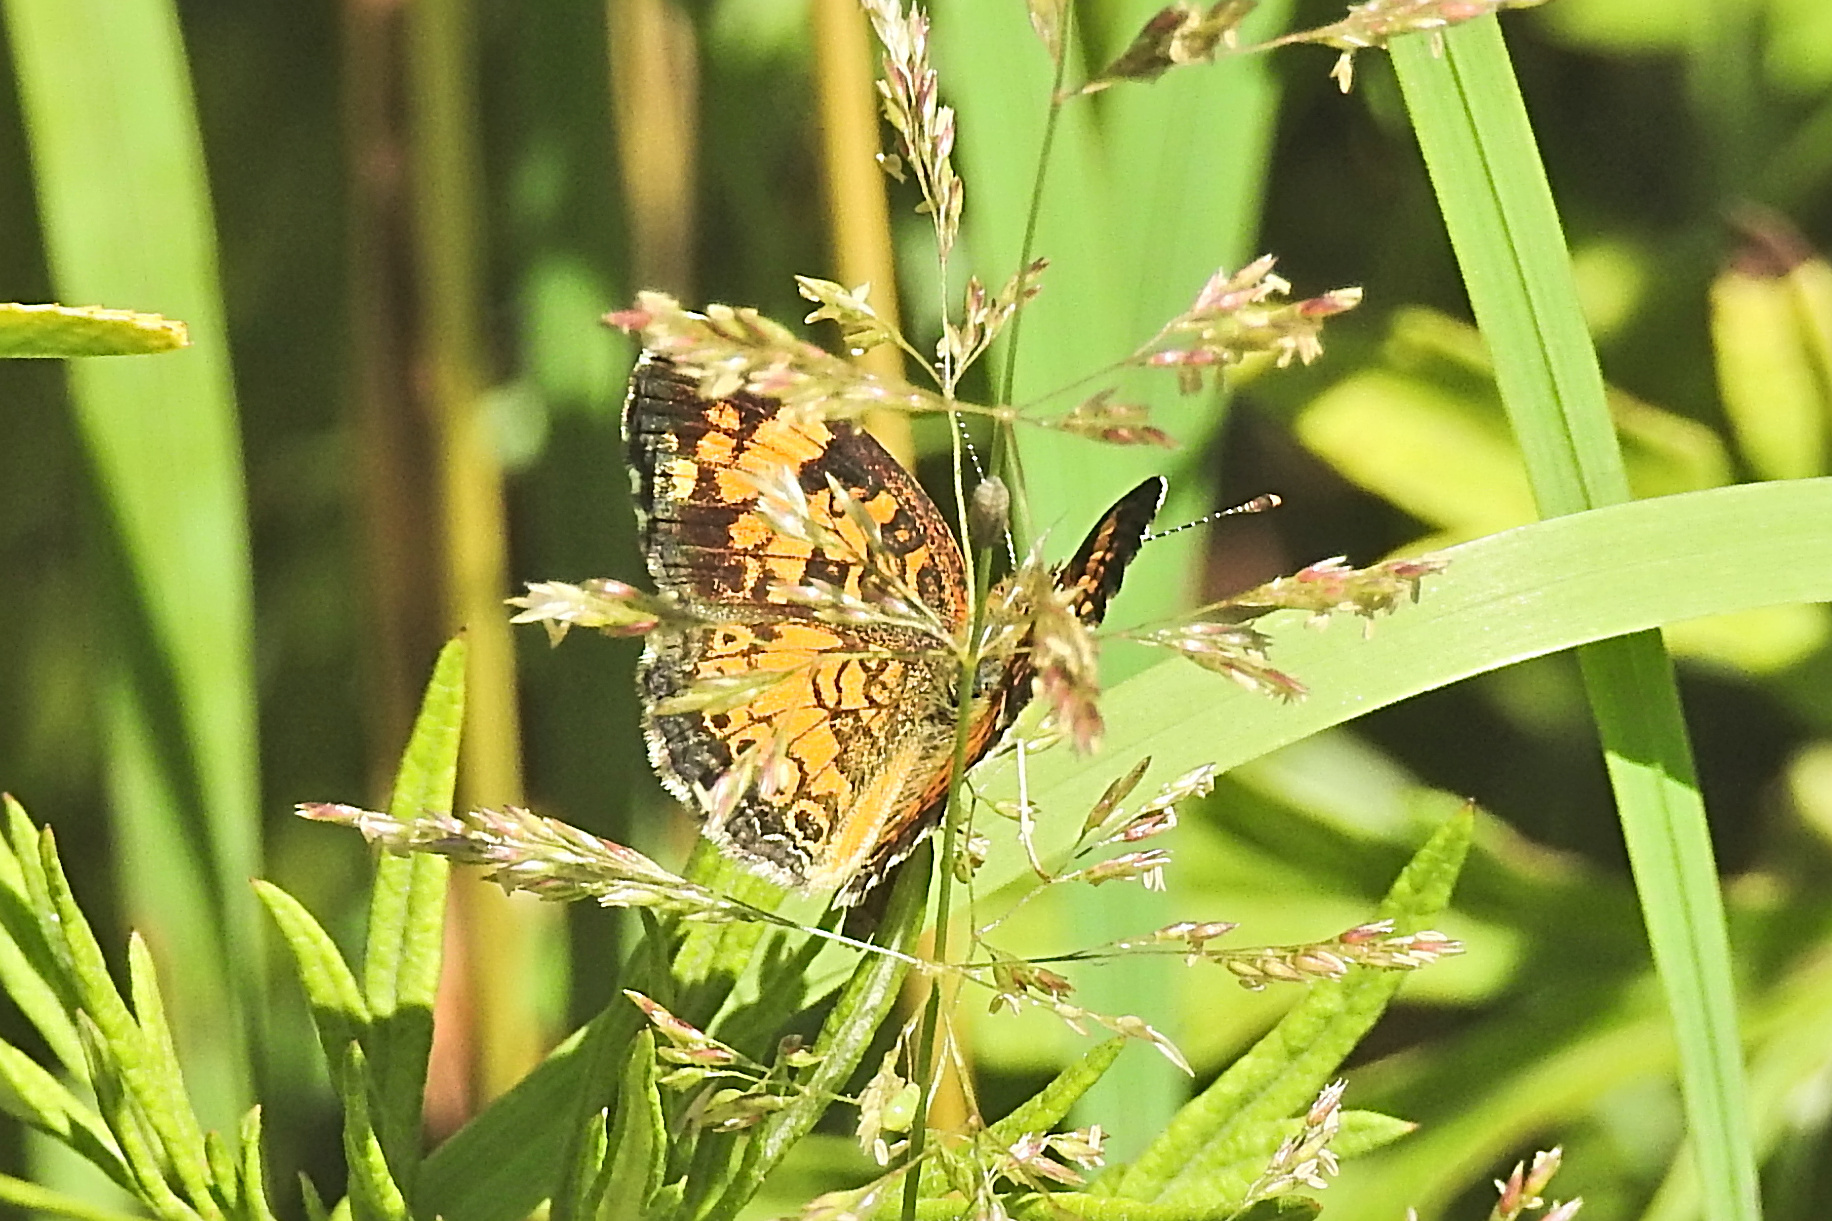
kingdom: Animalia
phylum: Arthropoda
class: Insecta
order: Lepidoptera
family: Nymphalidae
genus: Phyciodes
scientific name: Phyciodes tharos
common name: Pearl crescent
